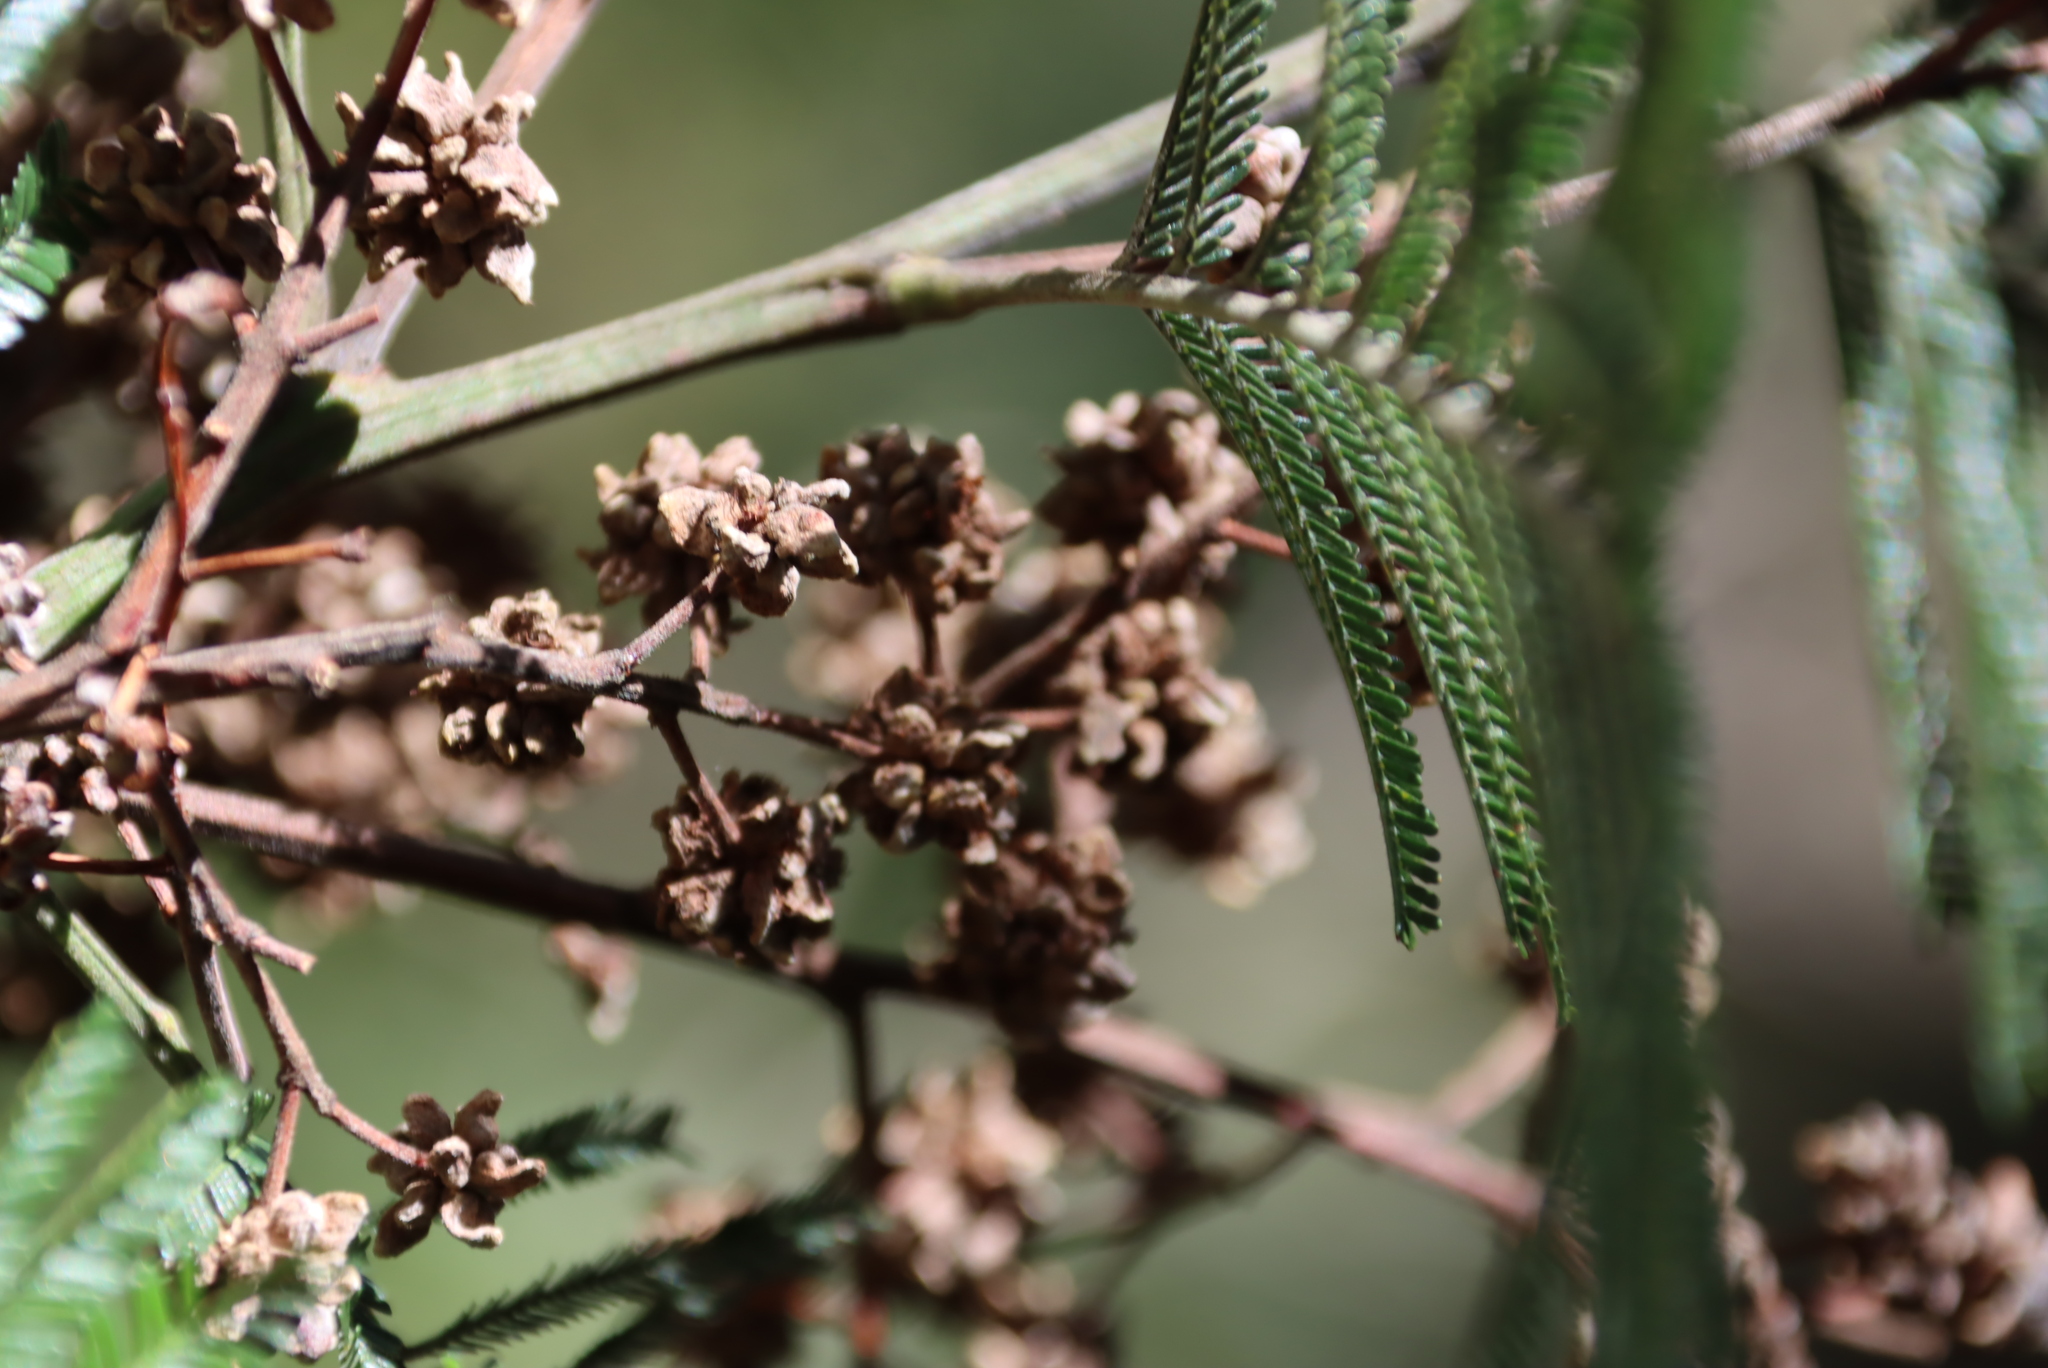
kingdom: Plantae
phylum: Tracheophyta
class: Magnoliopsida
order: Fabales
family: Fabaceae
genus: Acacia
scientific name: Acacia mearnsii
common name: Black wattle
